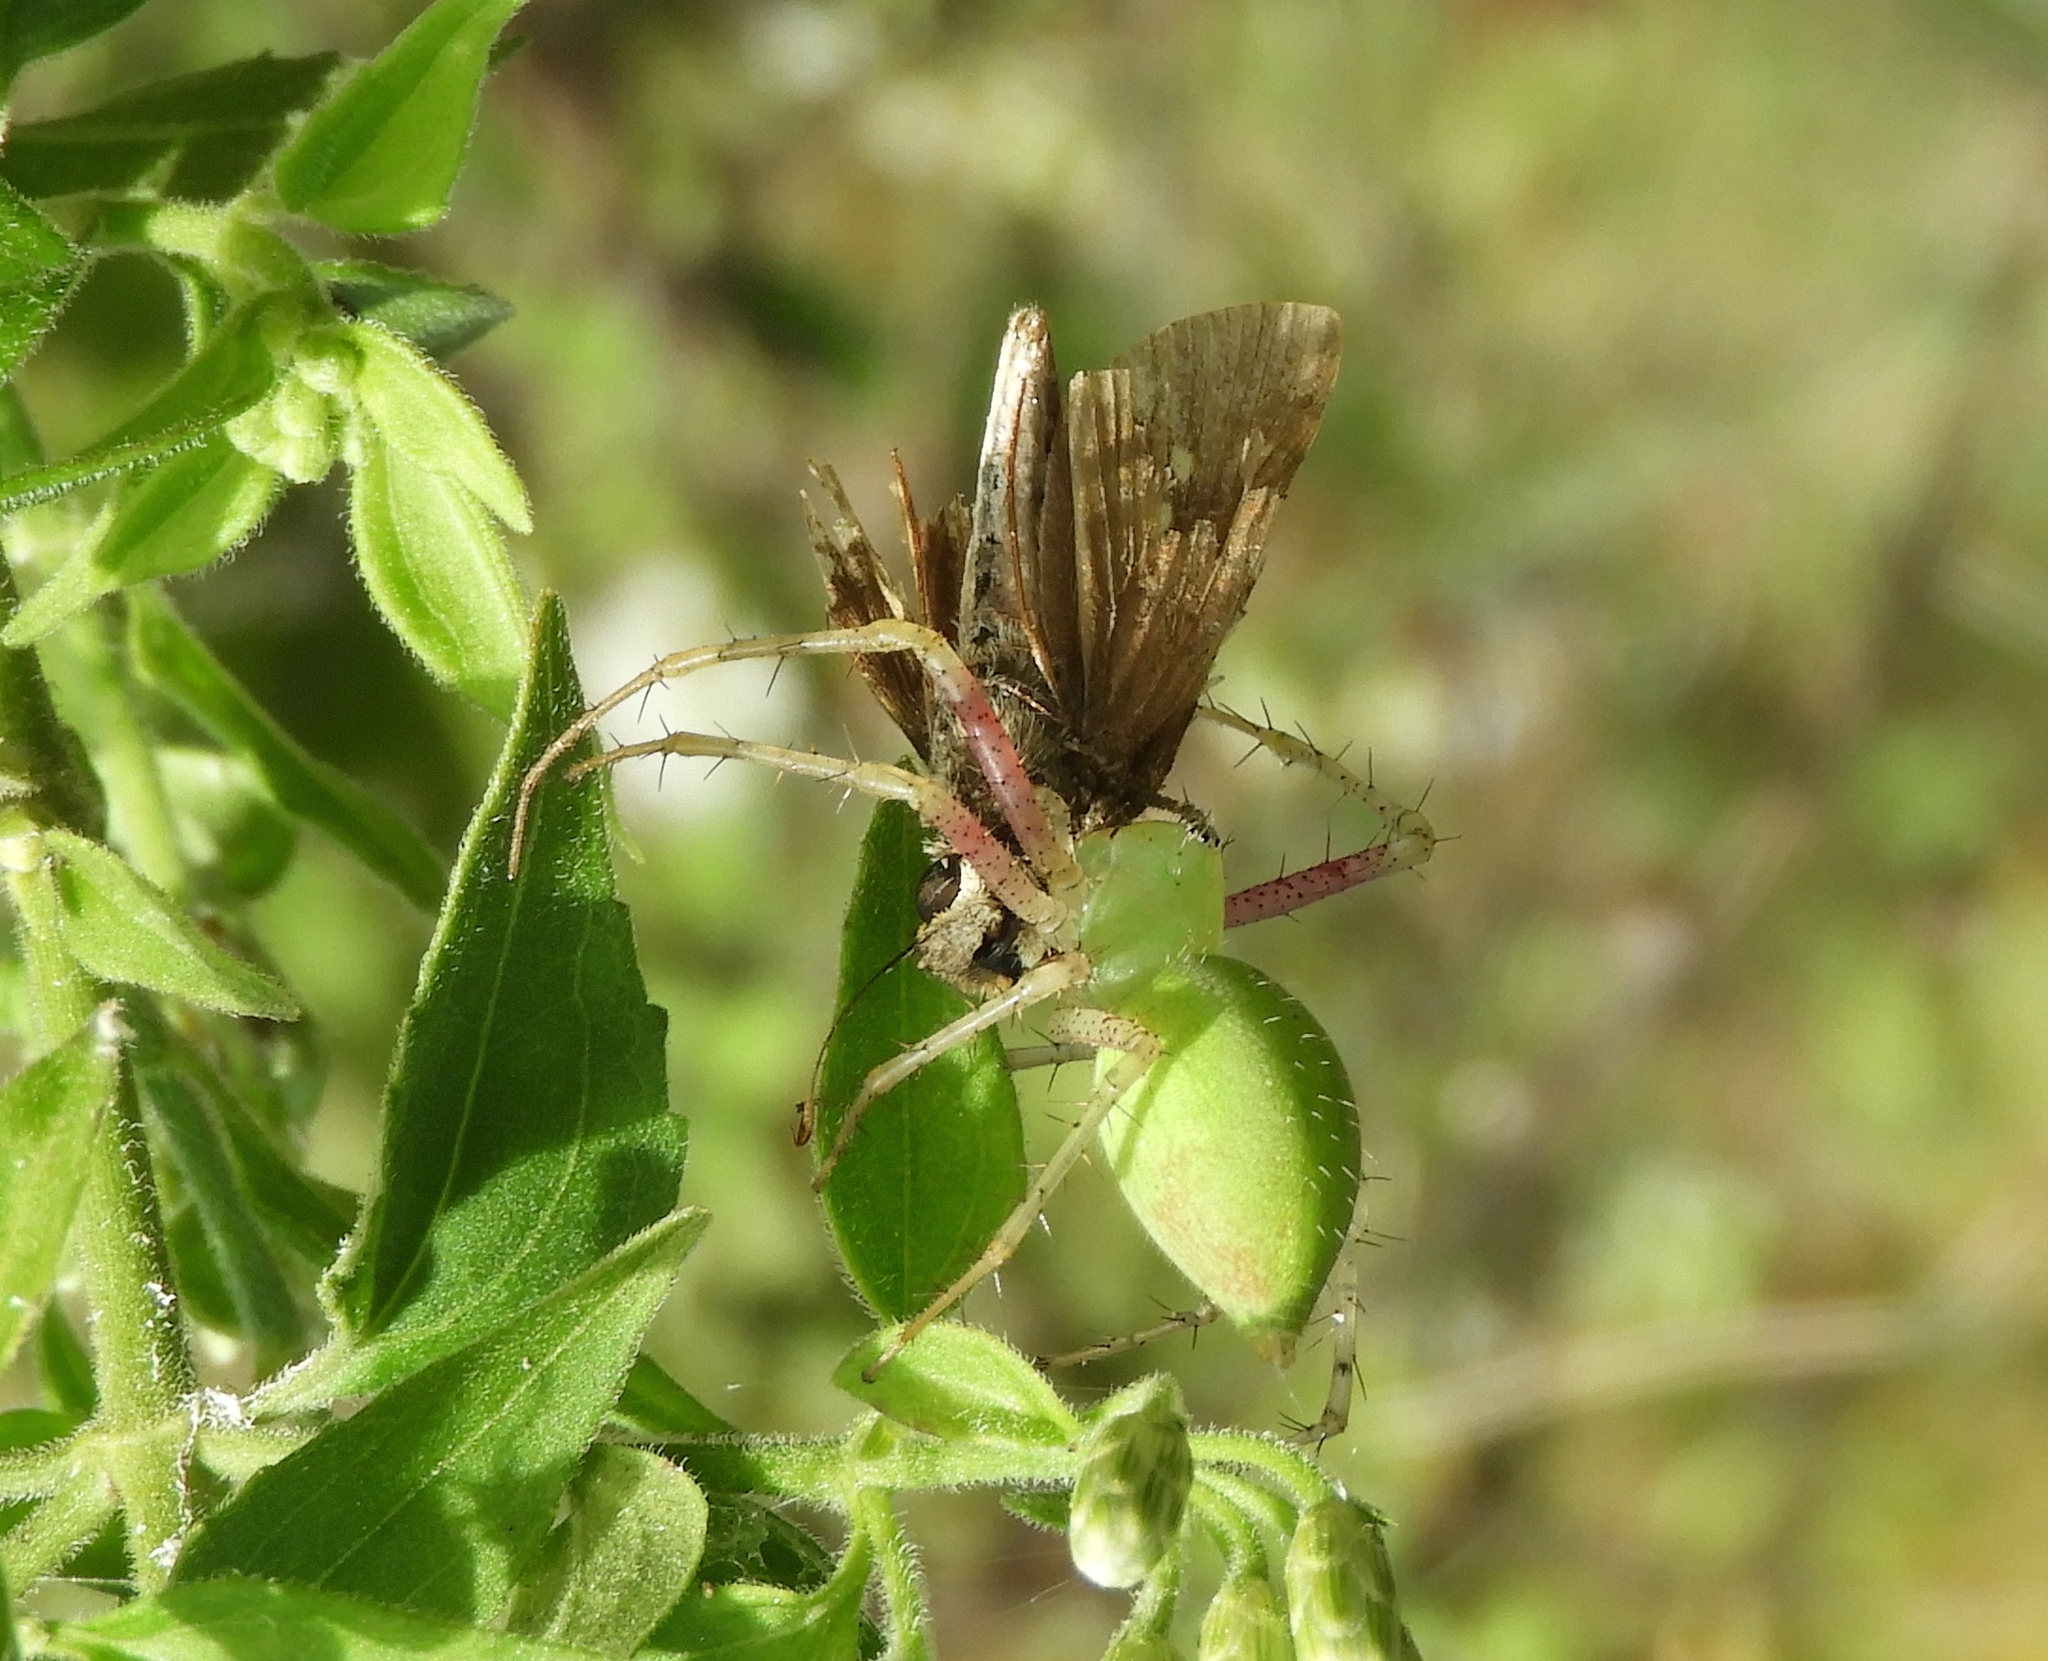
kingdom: Animalia
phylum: Arthropoda
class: Arachnida
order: Araneae
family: Oxyopidae
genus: Peucetia
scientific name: Peucetia longipalpis
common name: Lynx spiders
